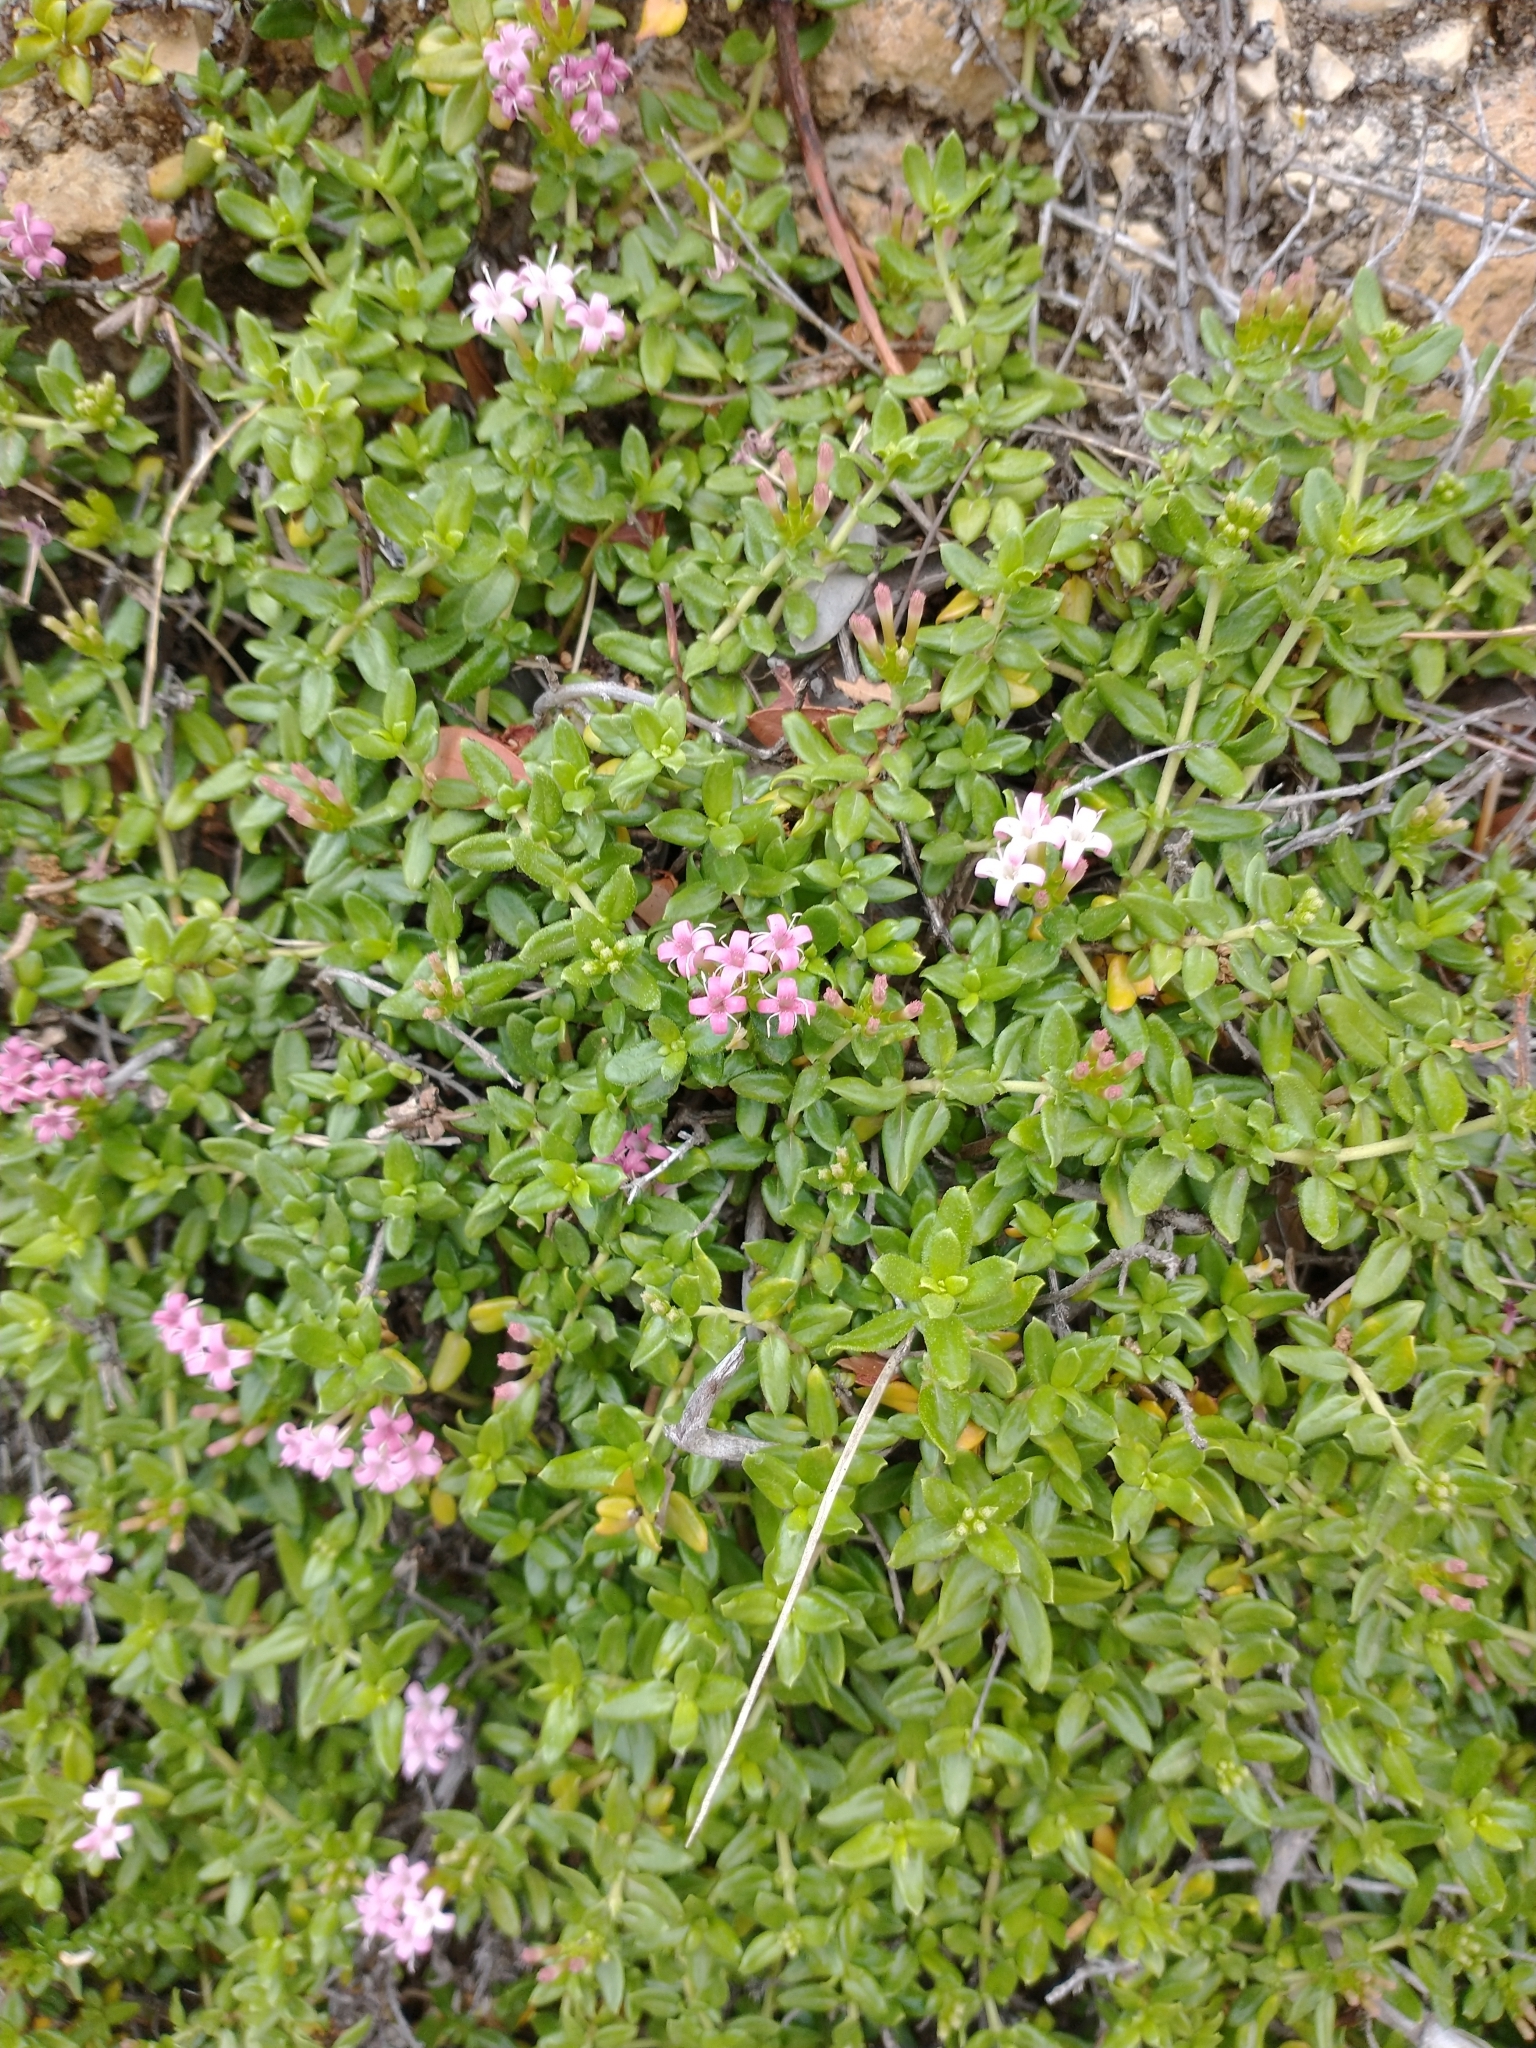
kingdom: Plantae
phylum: Tracheophyta
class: Magnoliopsida
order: Gentianales
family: Rubiaceae
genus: Plocama
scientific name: Plocama calabrica
